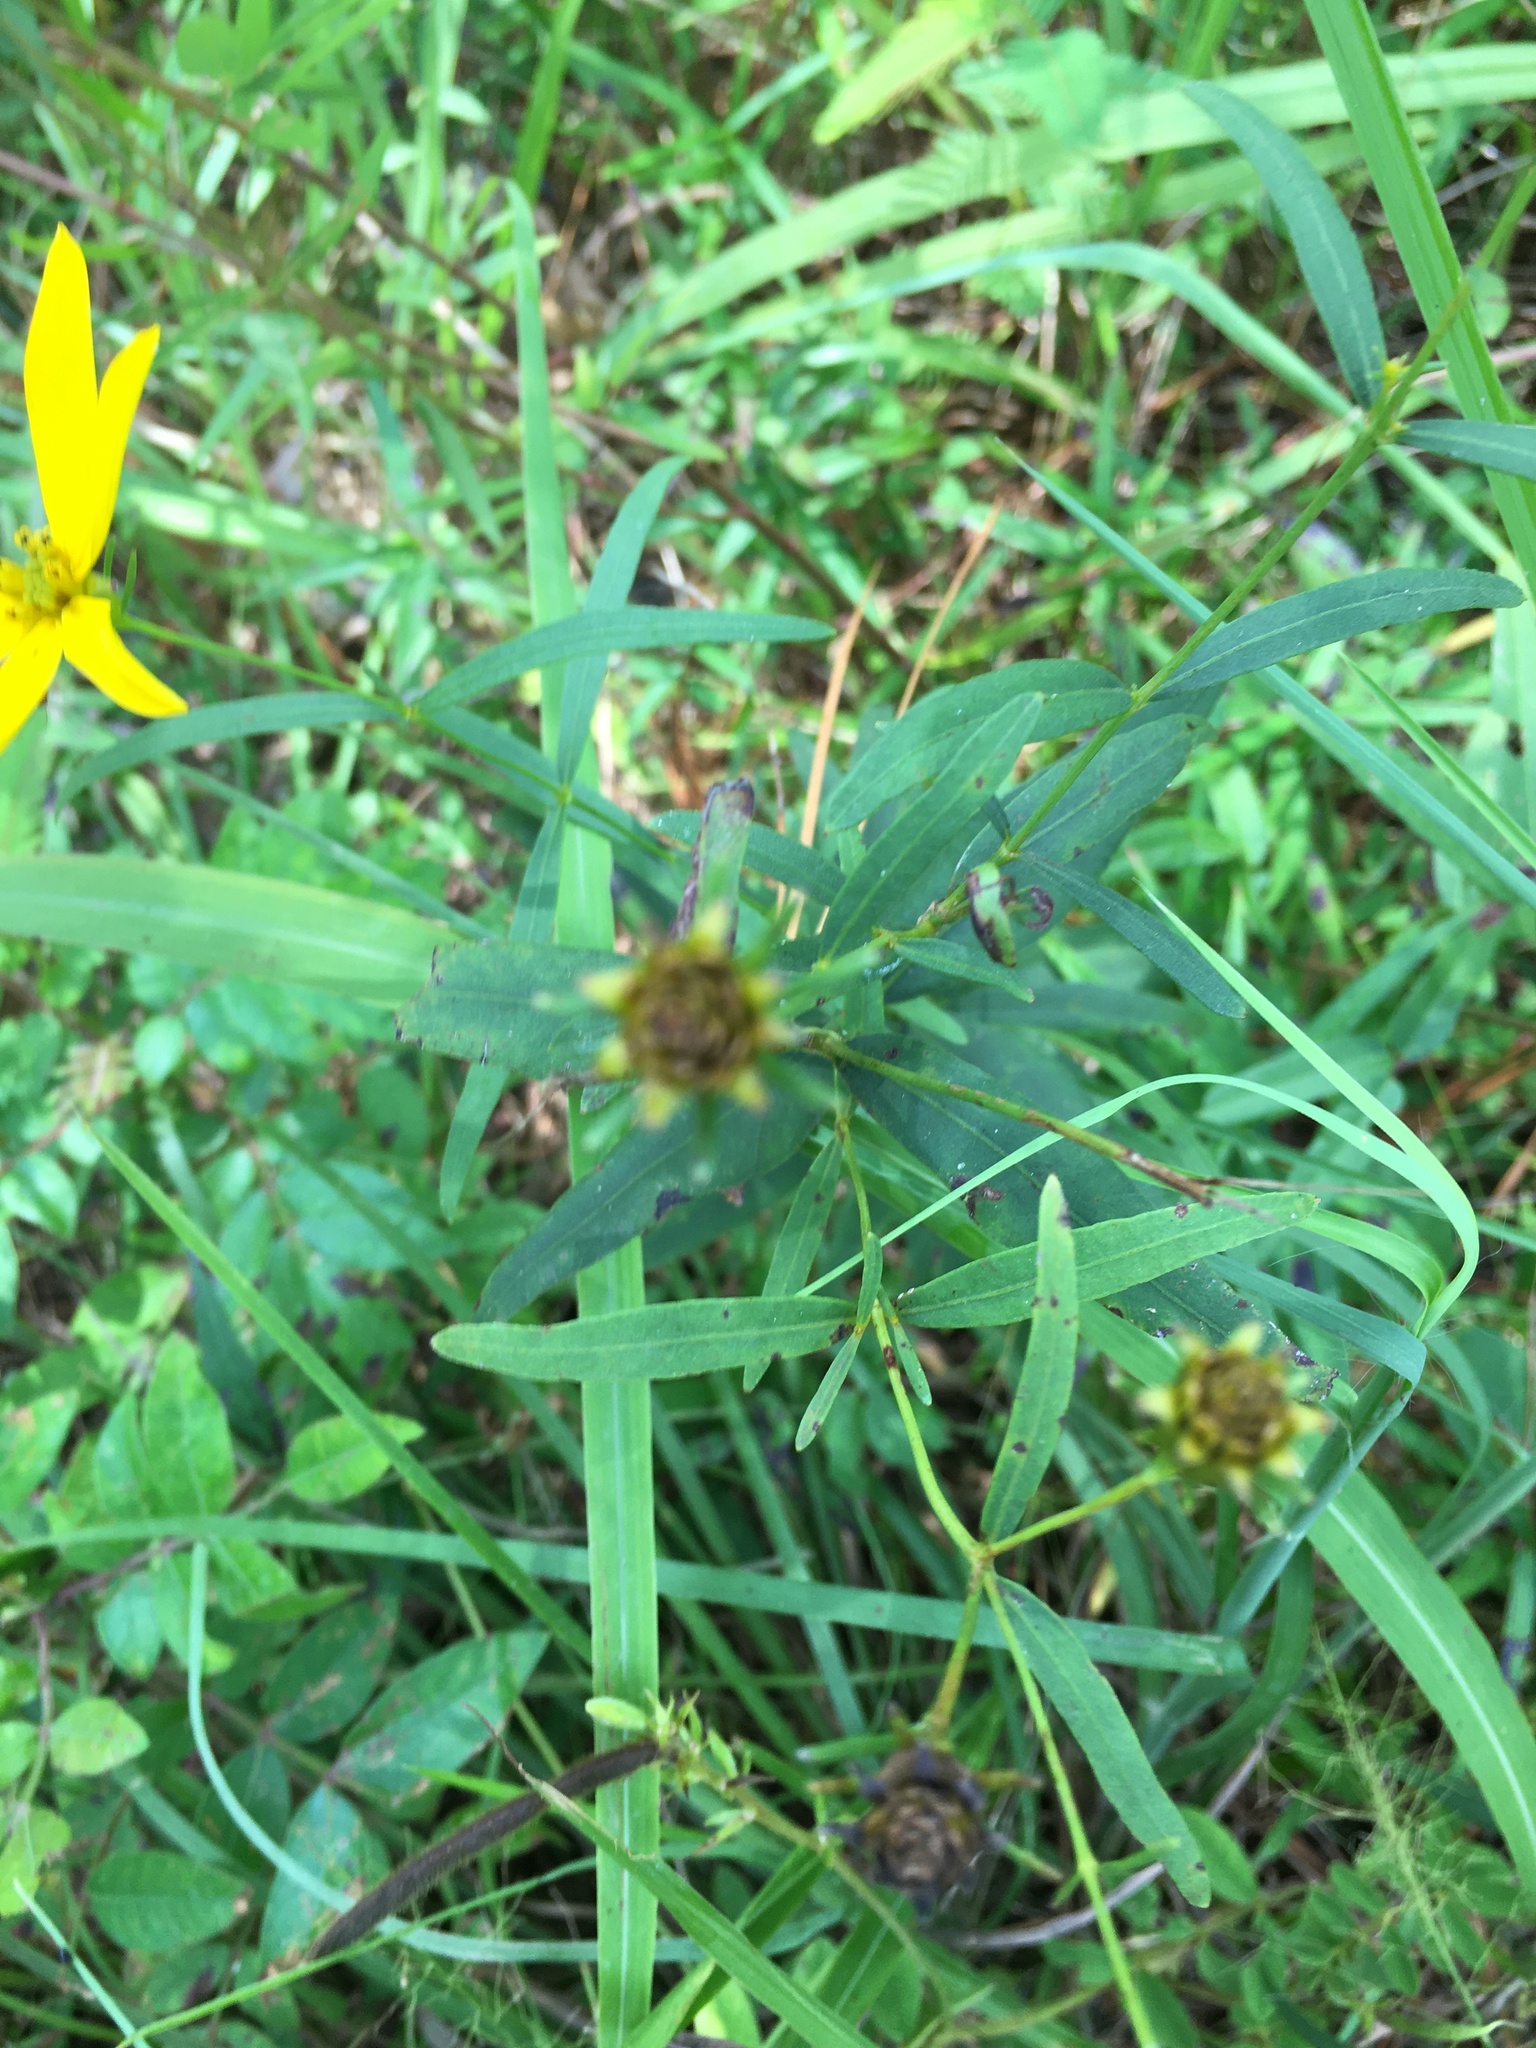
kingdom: Plantae
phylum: Tracheophyta
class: Magnoliopsida
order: Asterales
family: Asteraceae
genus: Coreopsis
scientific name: Coreopsis major
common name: Forest tickseed
